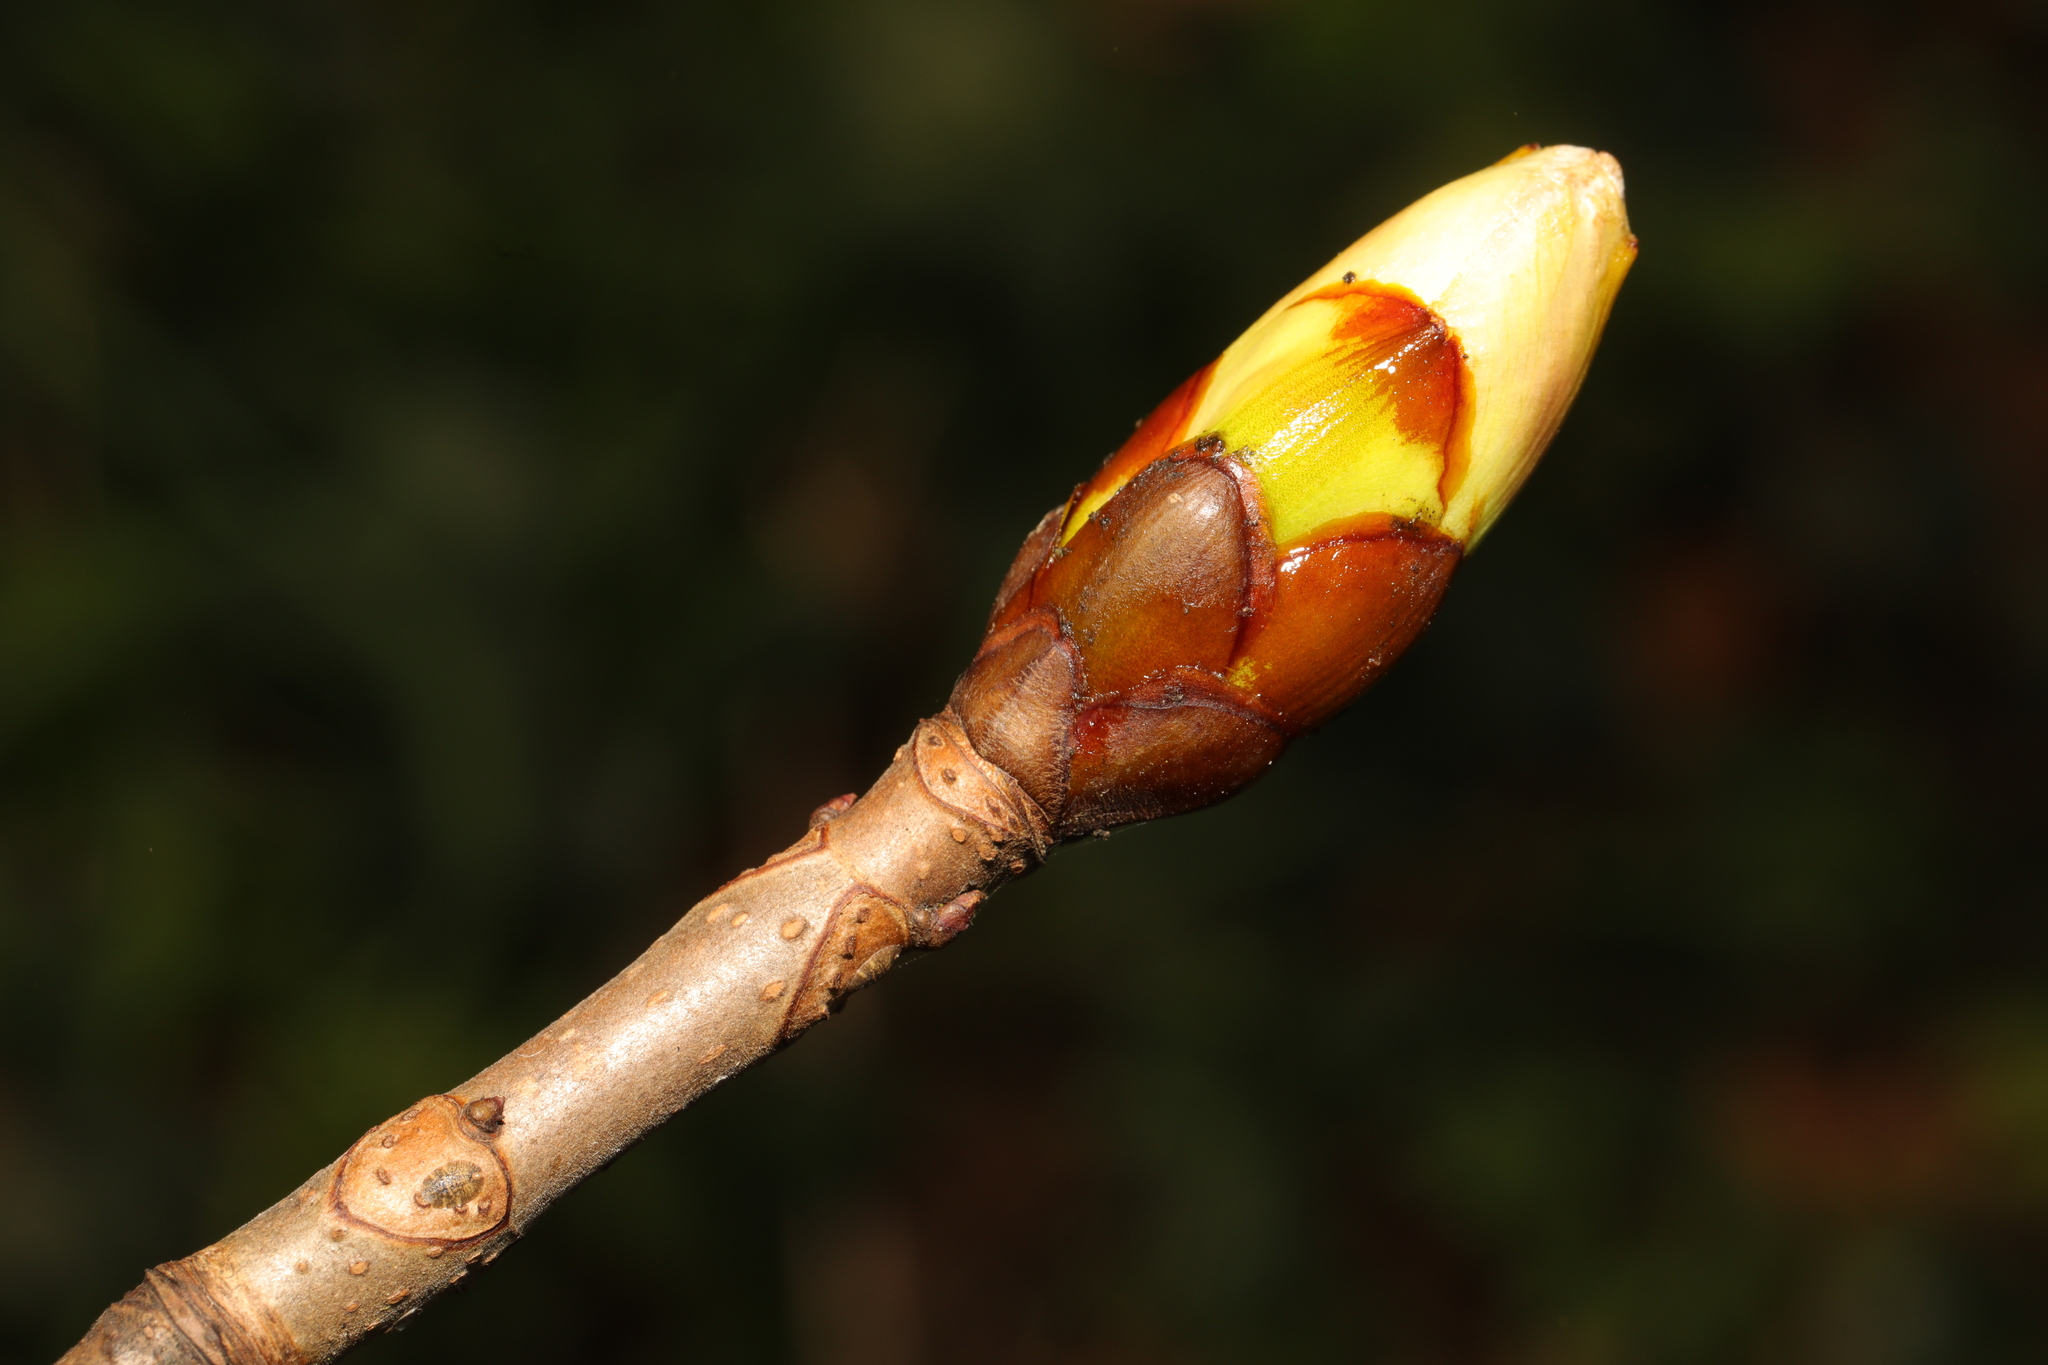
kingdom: Plantae
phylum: Tracheophyta
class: Magnoliopsida
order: Sapindales
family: Sapindaceae
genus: Aesculus
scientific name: Aesculus hippocastanum
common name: Horse-chestnut
